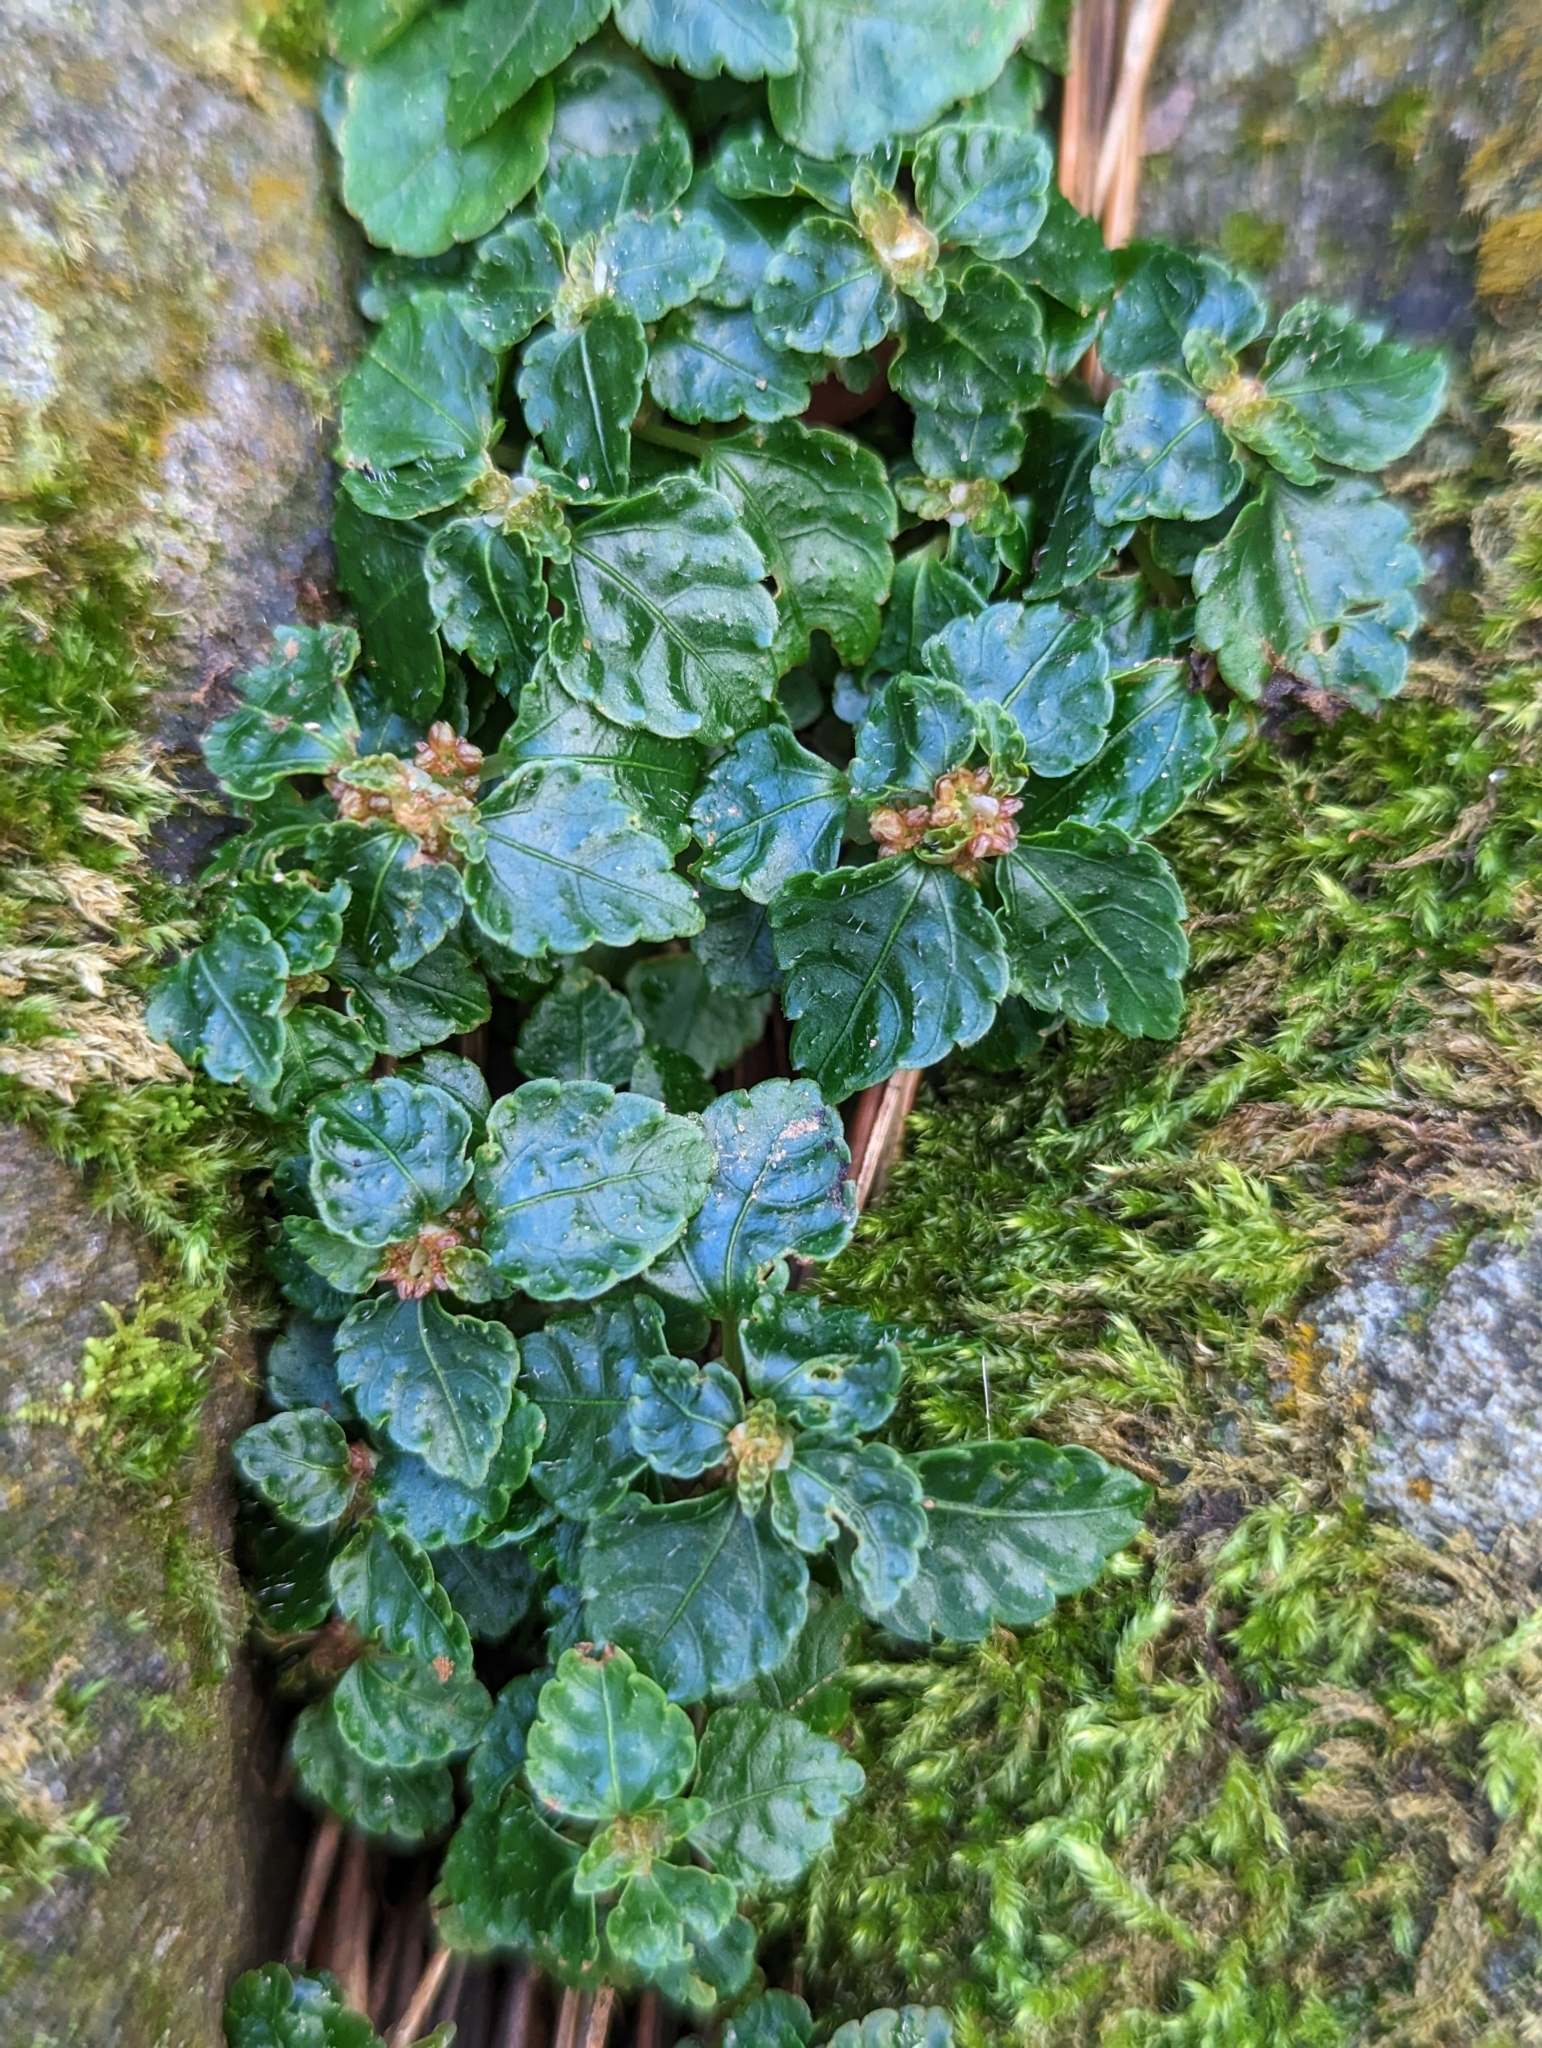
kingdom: Plantae
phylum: Tracheophyta
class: Magnoliopsida
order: Rosales
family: Urticaceae
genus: Pilea
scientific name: Pilea brevicornuta
